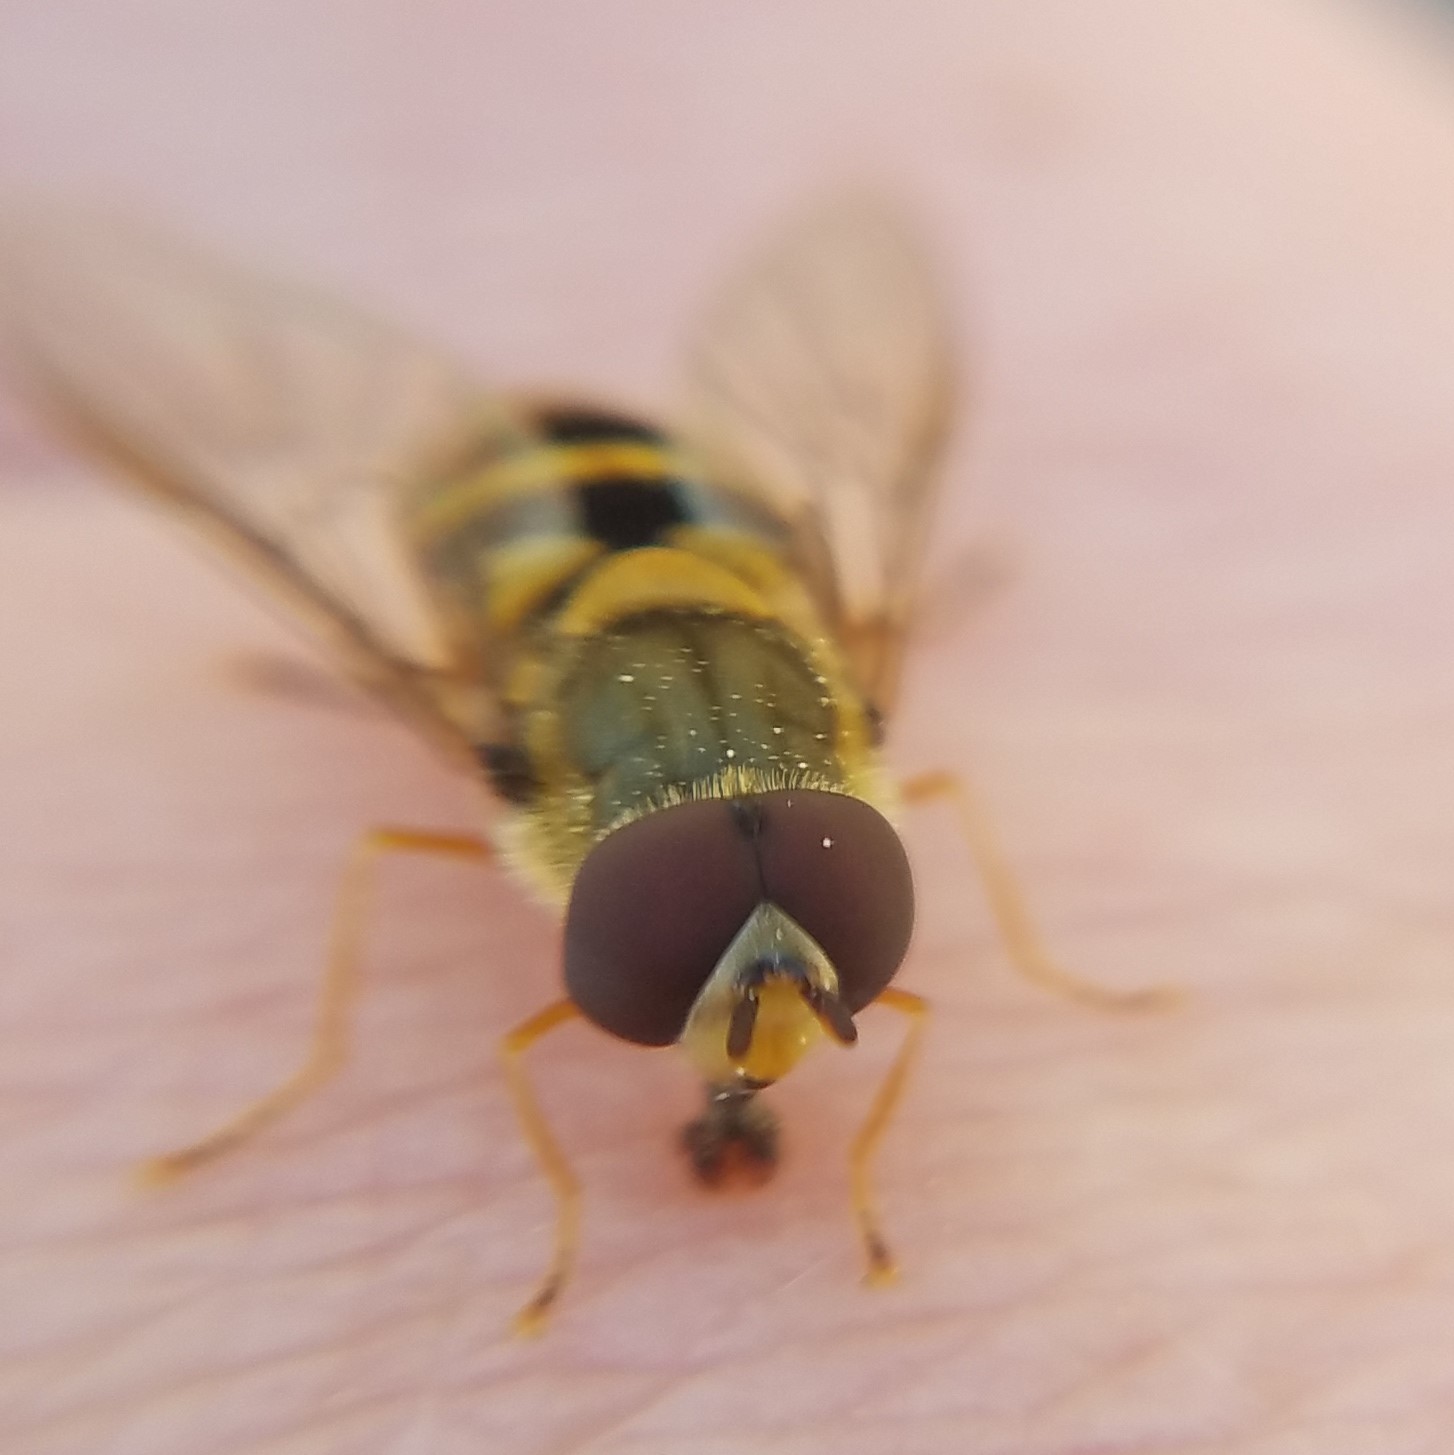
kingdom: Animalia
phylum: Arthropoda
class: Insecta
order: Diptera
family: Syrphidae
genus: Syrphus
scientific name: Syrphus
